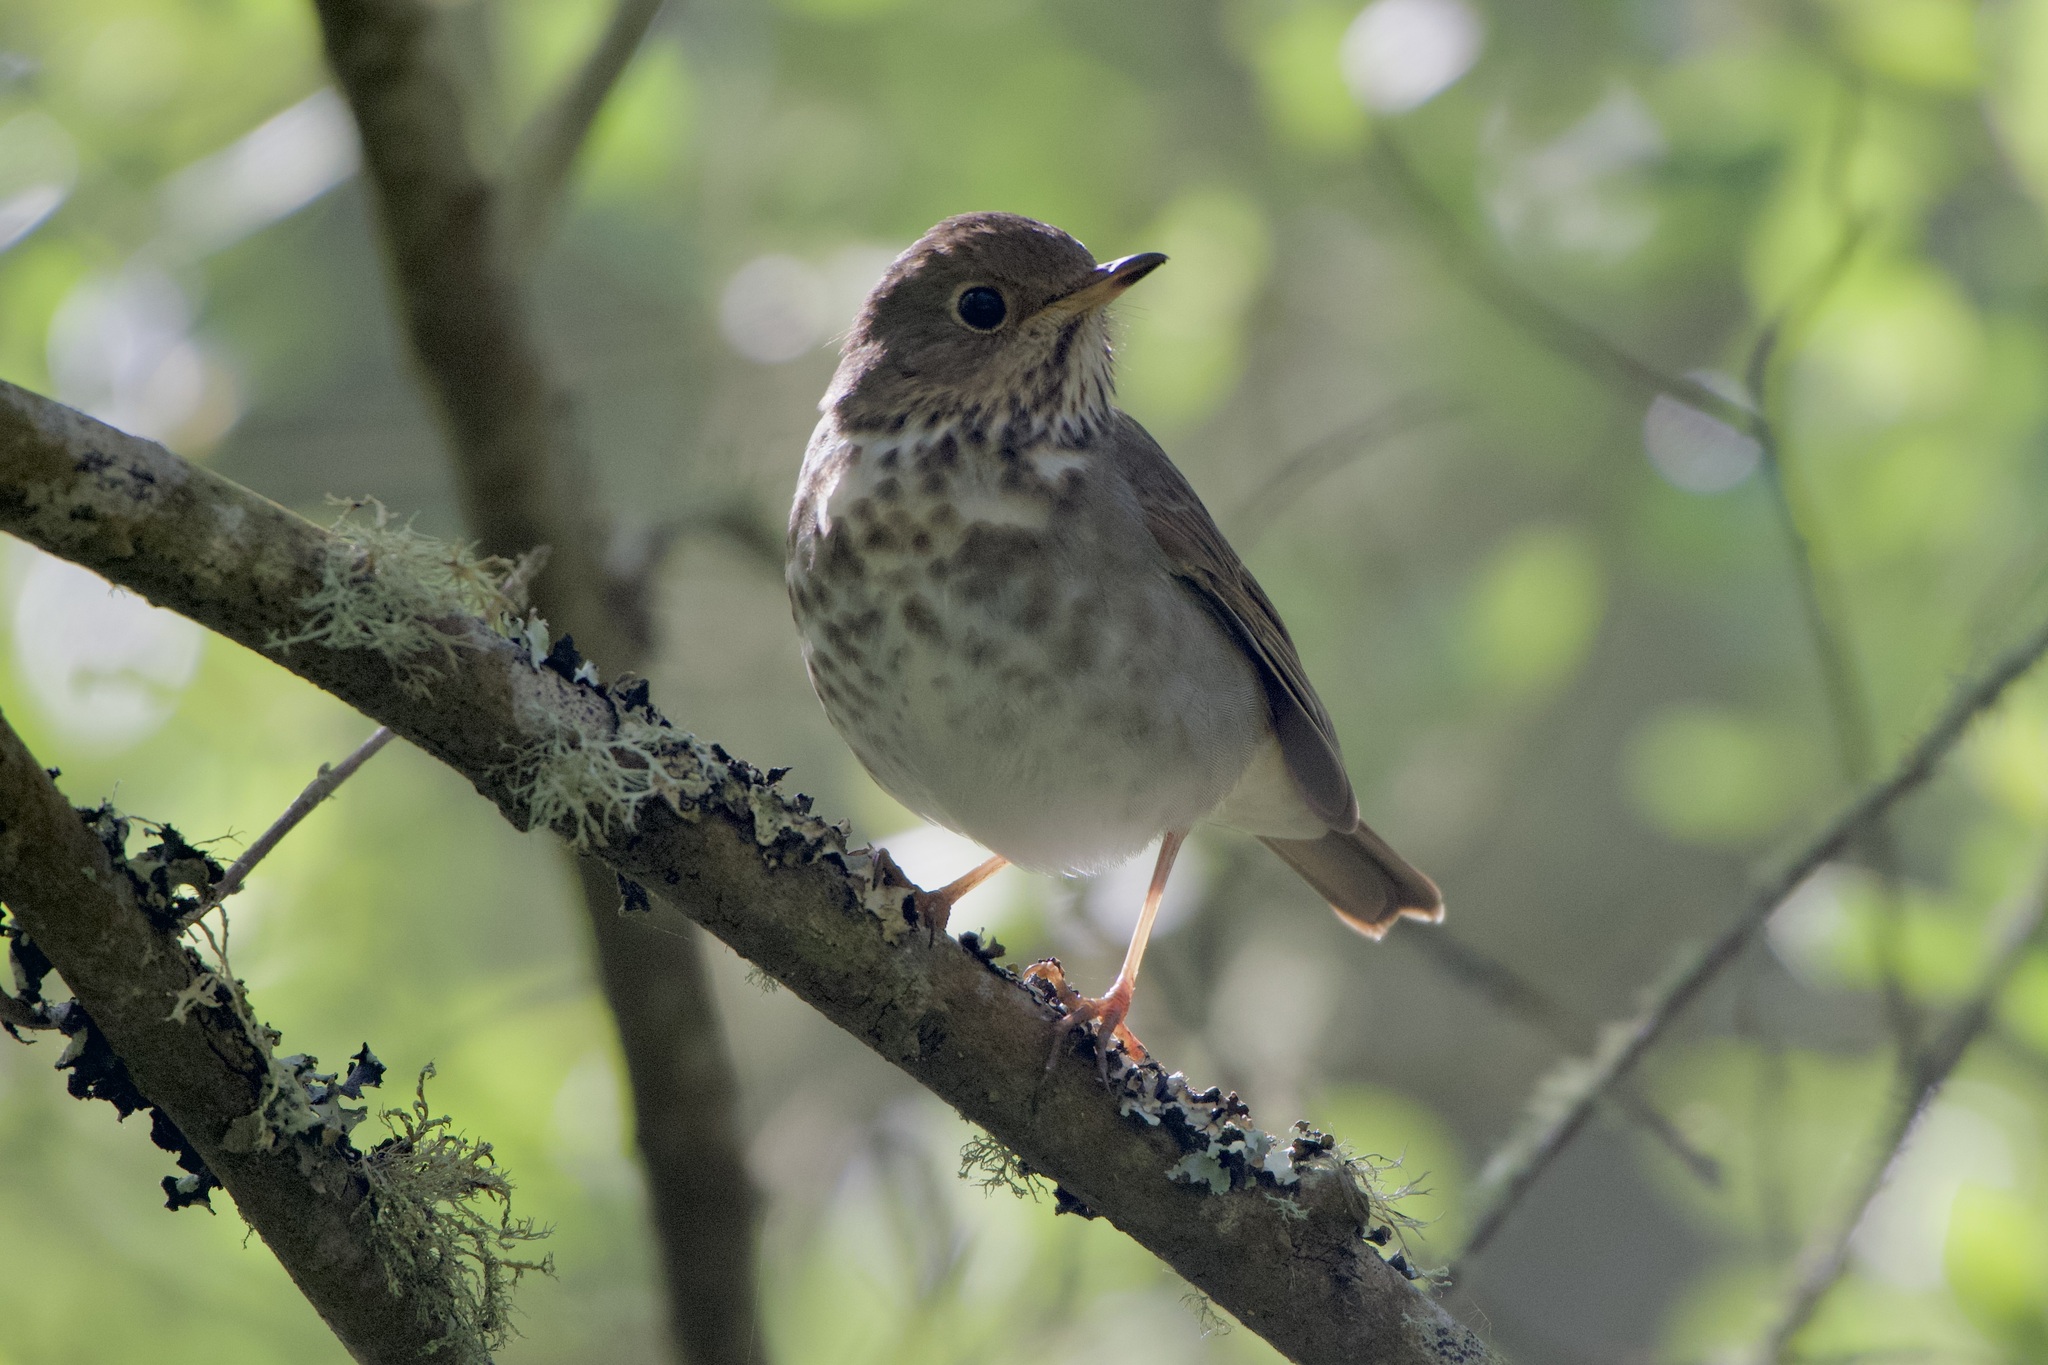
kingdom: Animalia
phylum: Chordata
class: Aves
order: Passeriformes
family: Turdidae
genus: Catharus
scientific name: Catharus guttatus
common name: Hermit thrush
